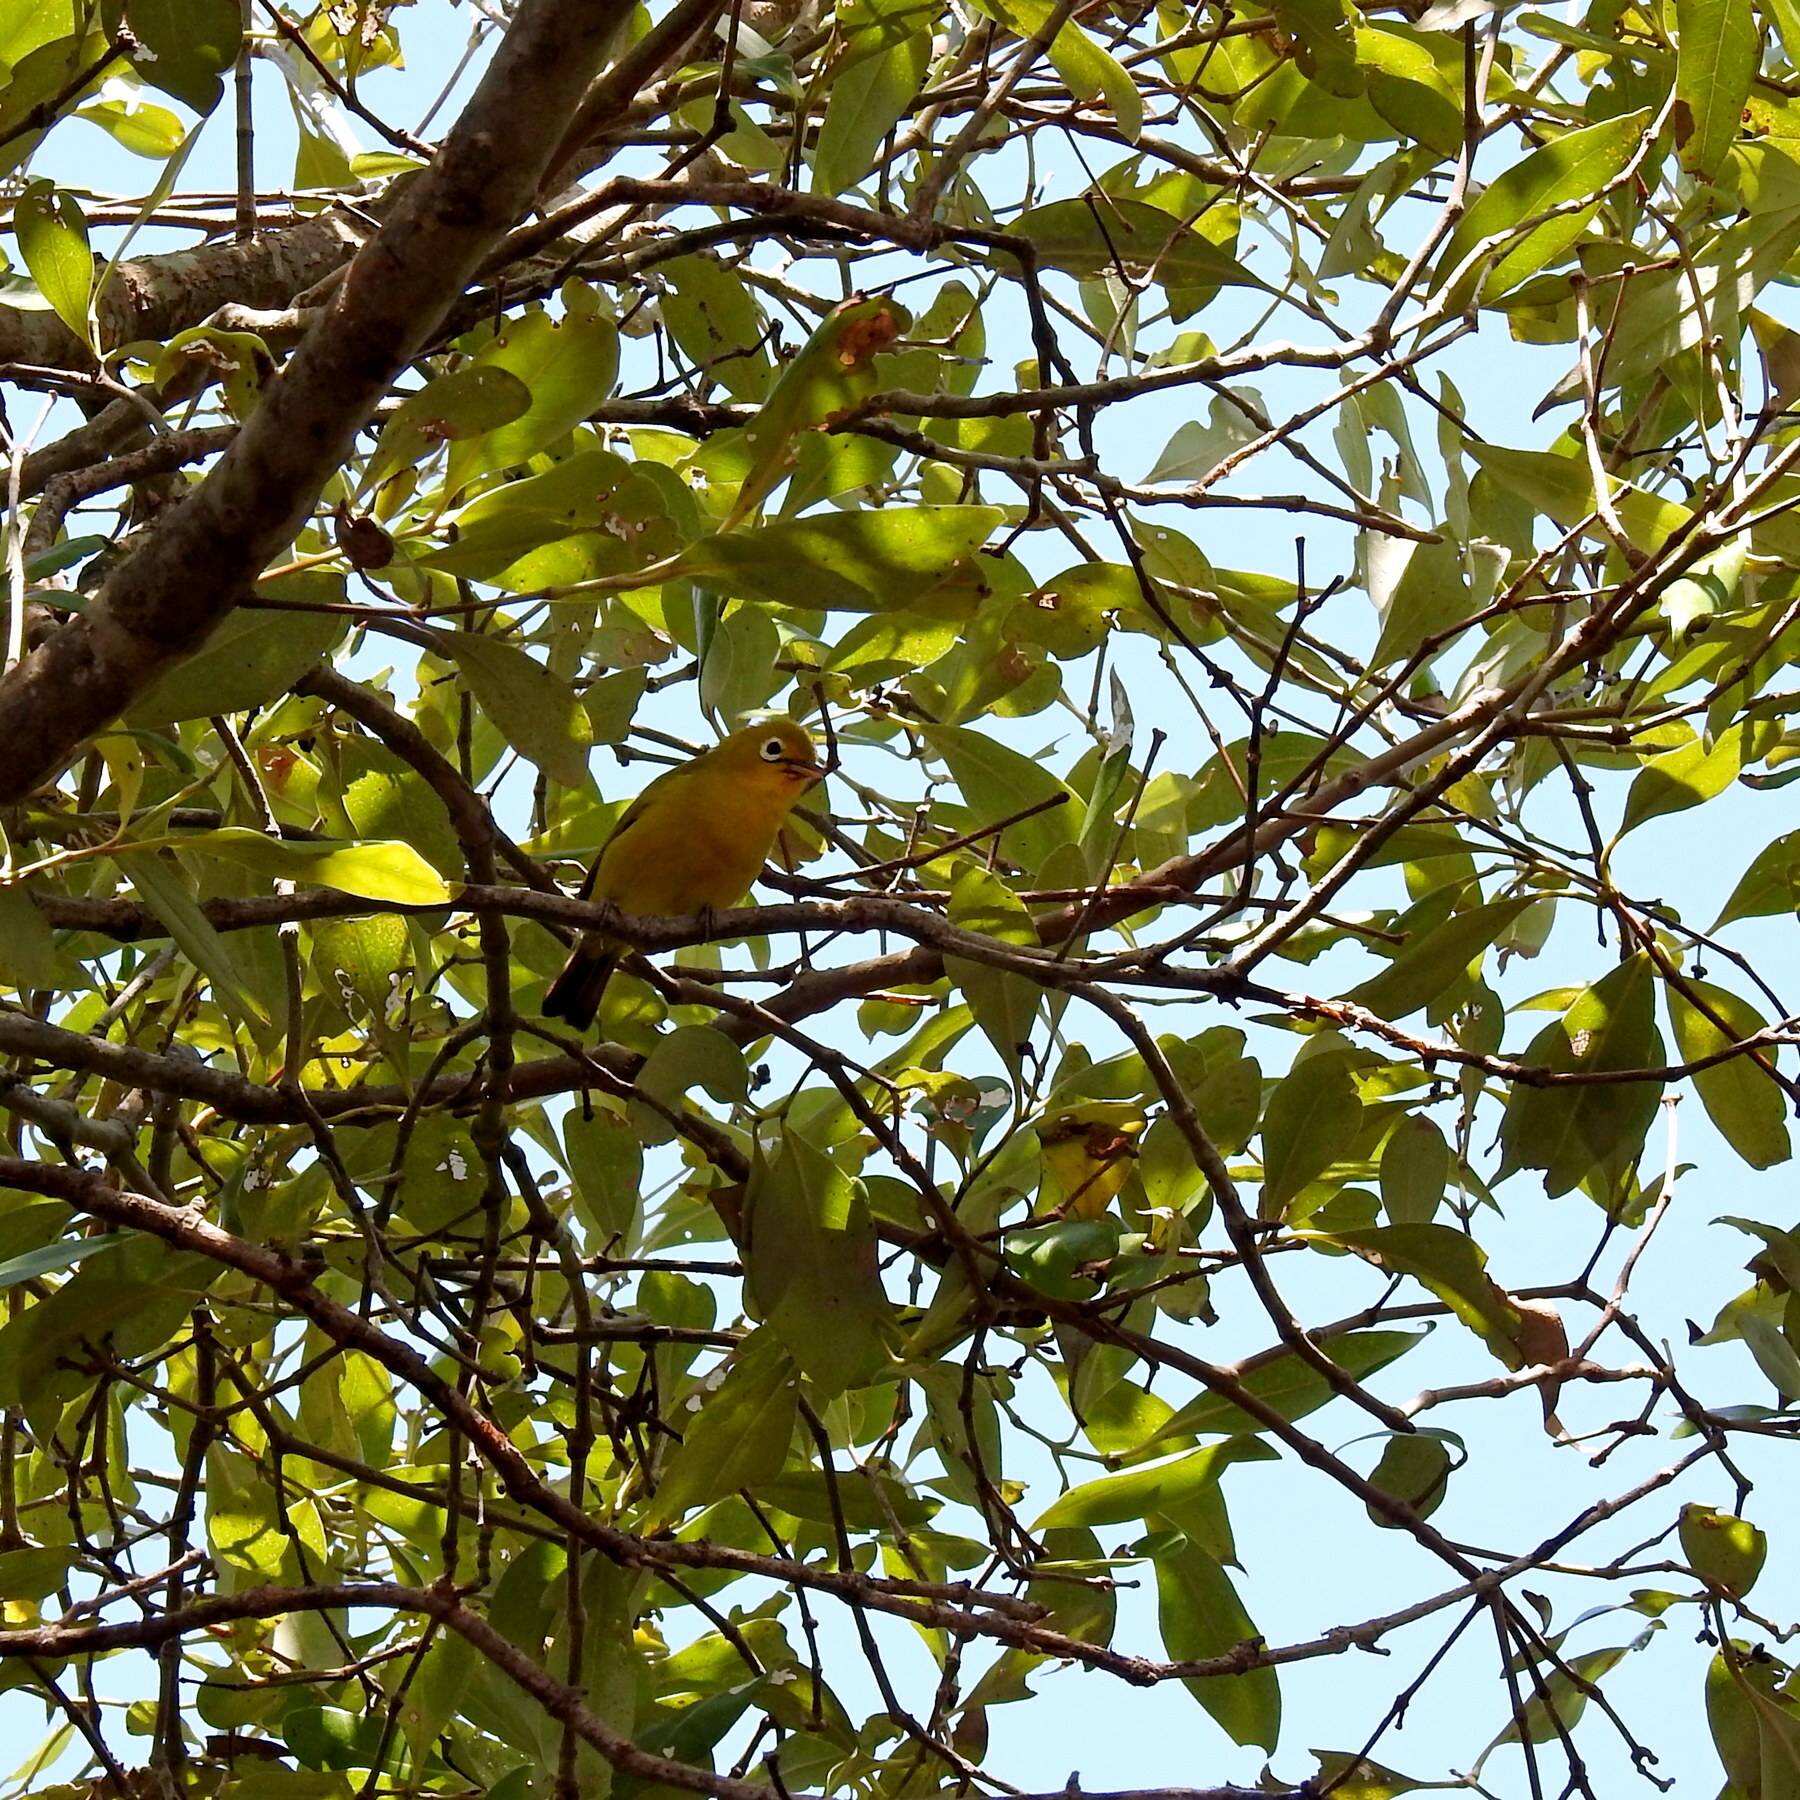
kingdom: Animalia
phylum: Chordata
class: Aves
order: Passeriformes
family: Zosteropidae
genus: Zosterops
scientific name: Zosterops flavissimus
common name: Wakatobi white-eye
